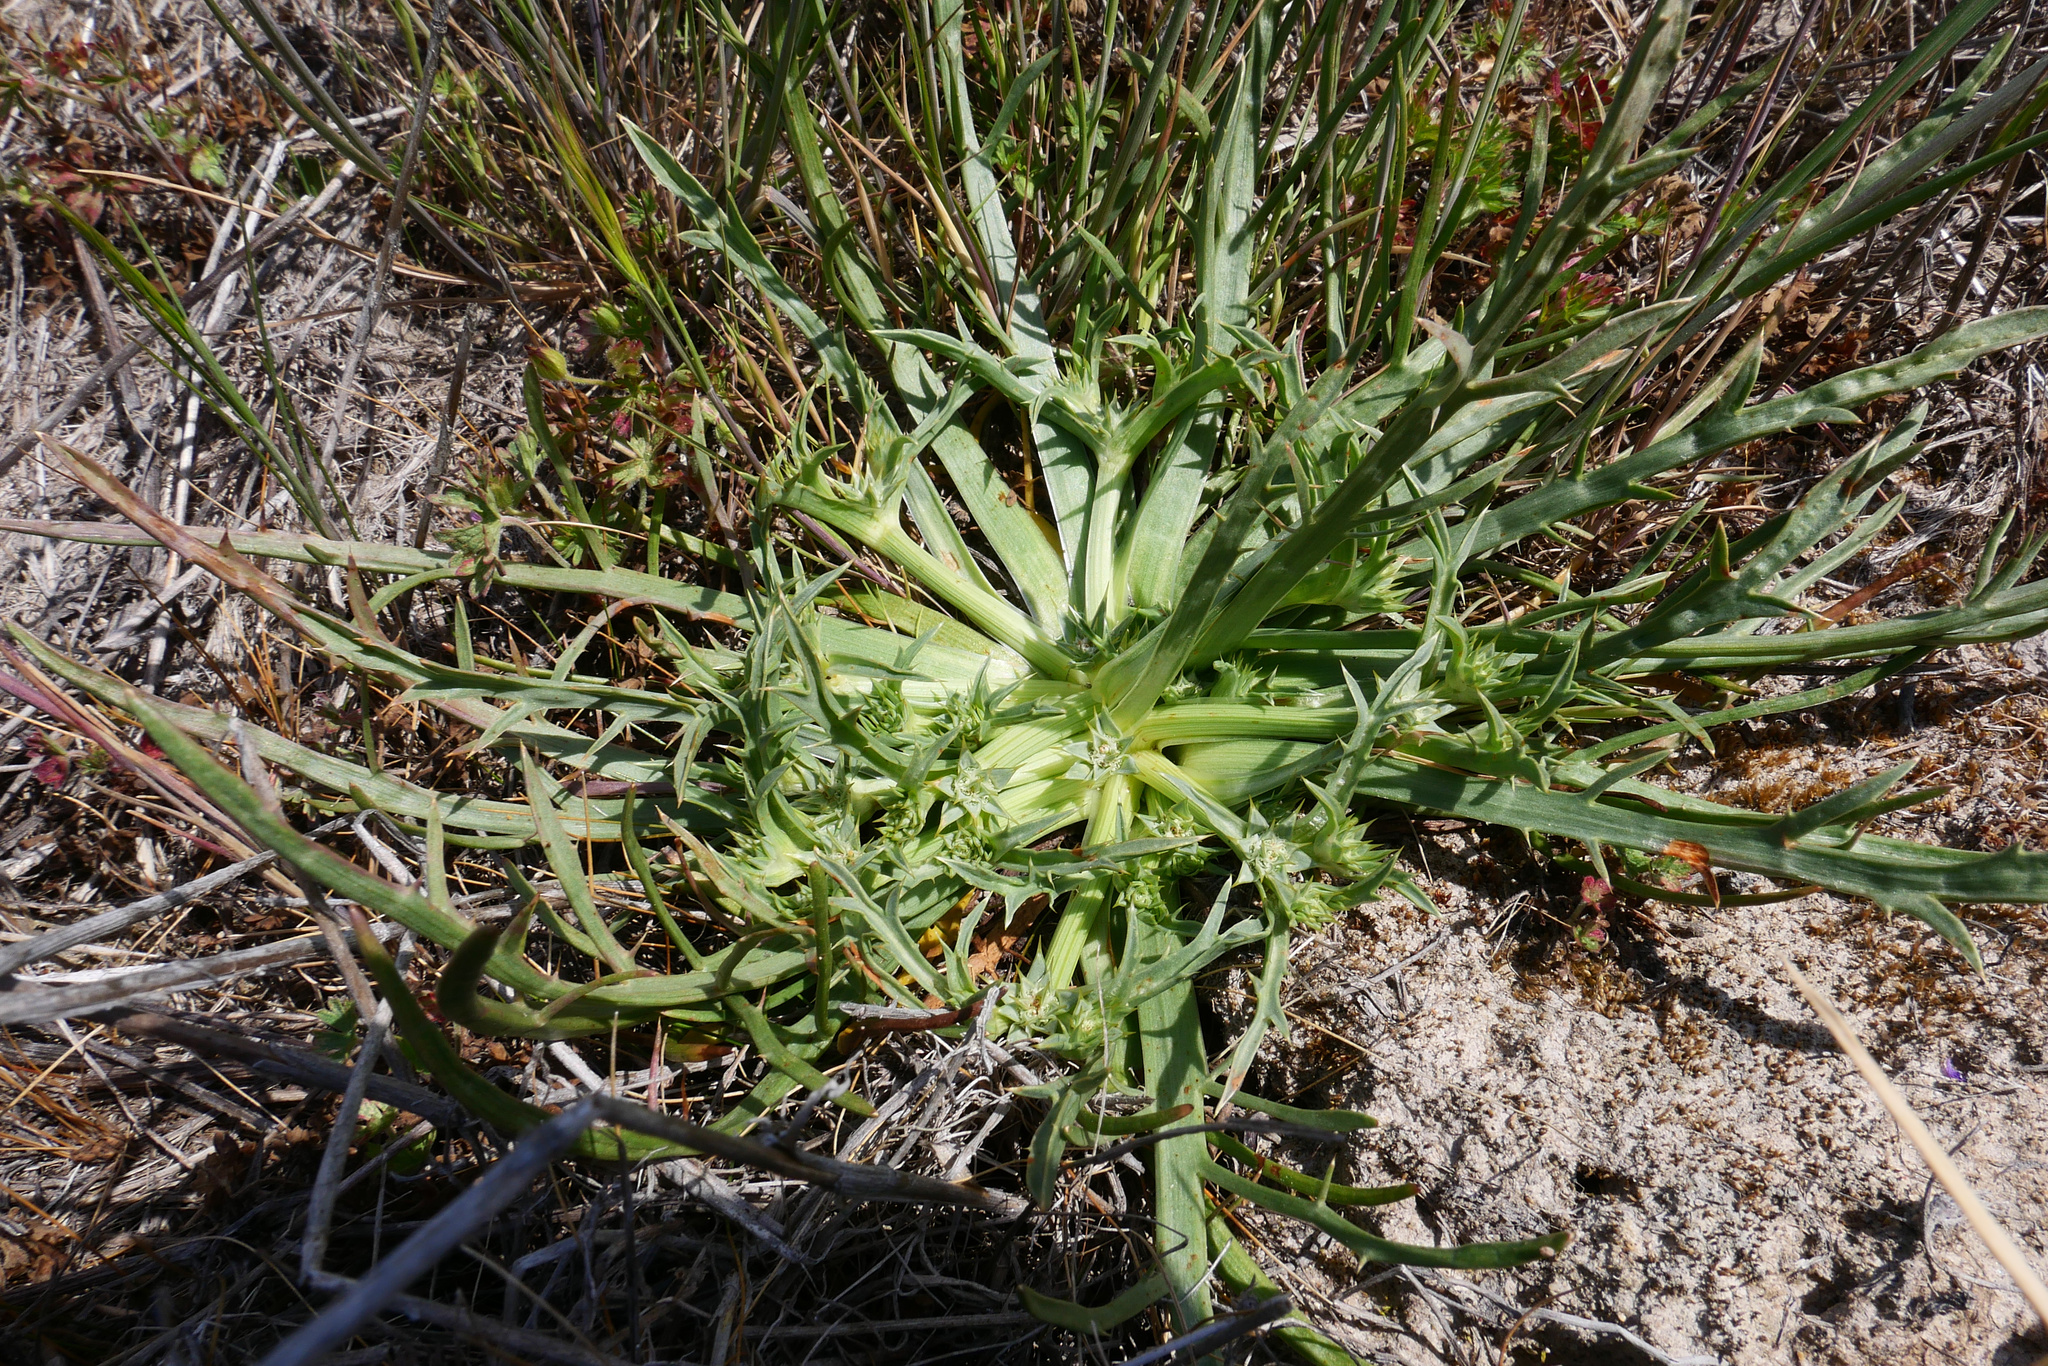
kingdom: Plantae
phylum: Tracheophyta
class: Magnoliopsida
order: Apiales
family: Apiaceae
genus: Eryngium
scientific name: Eryngium montereyense
